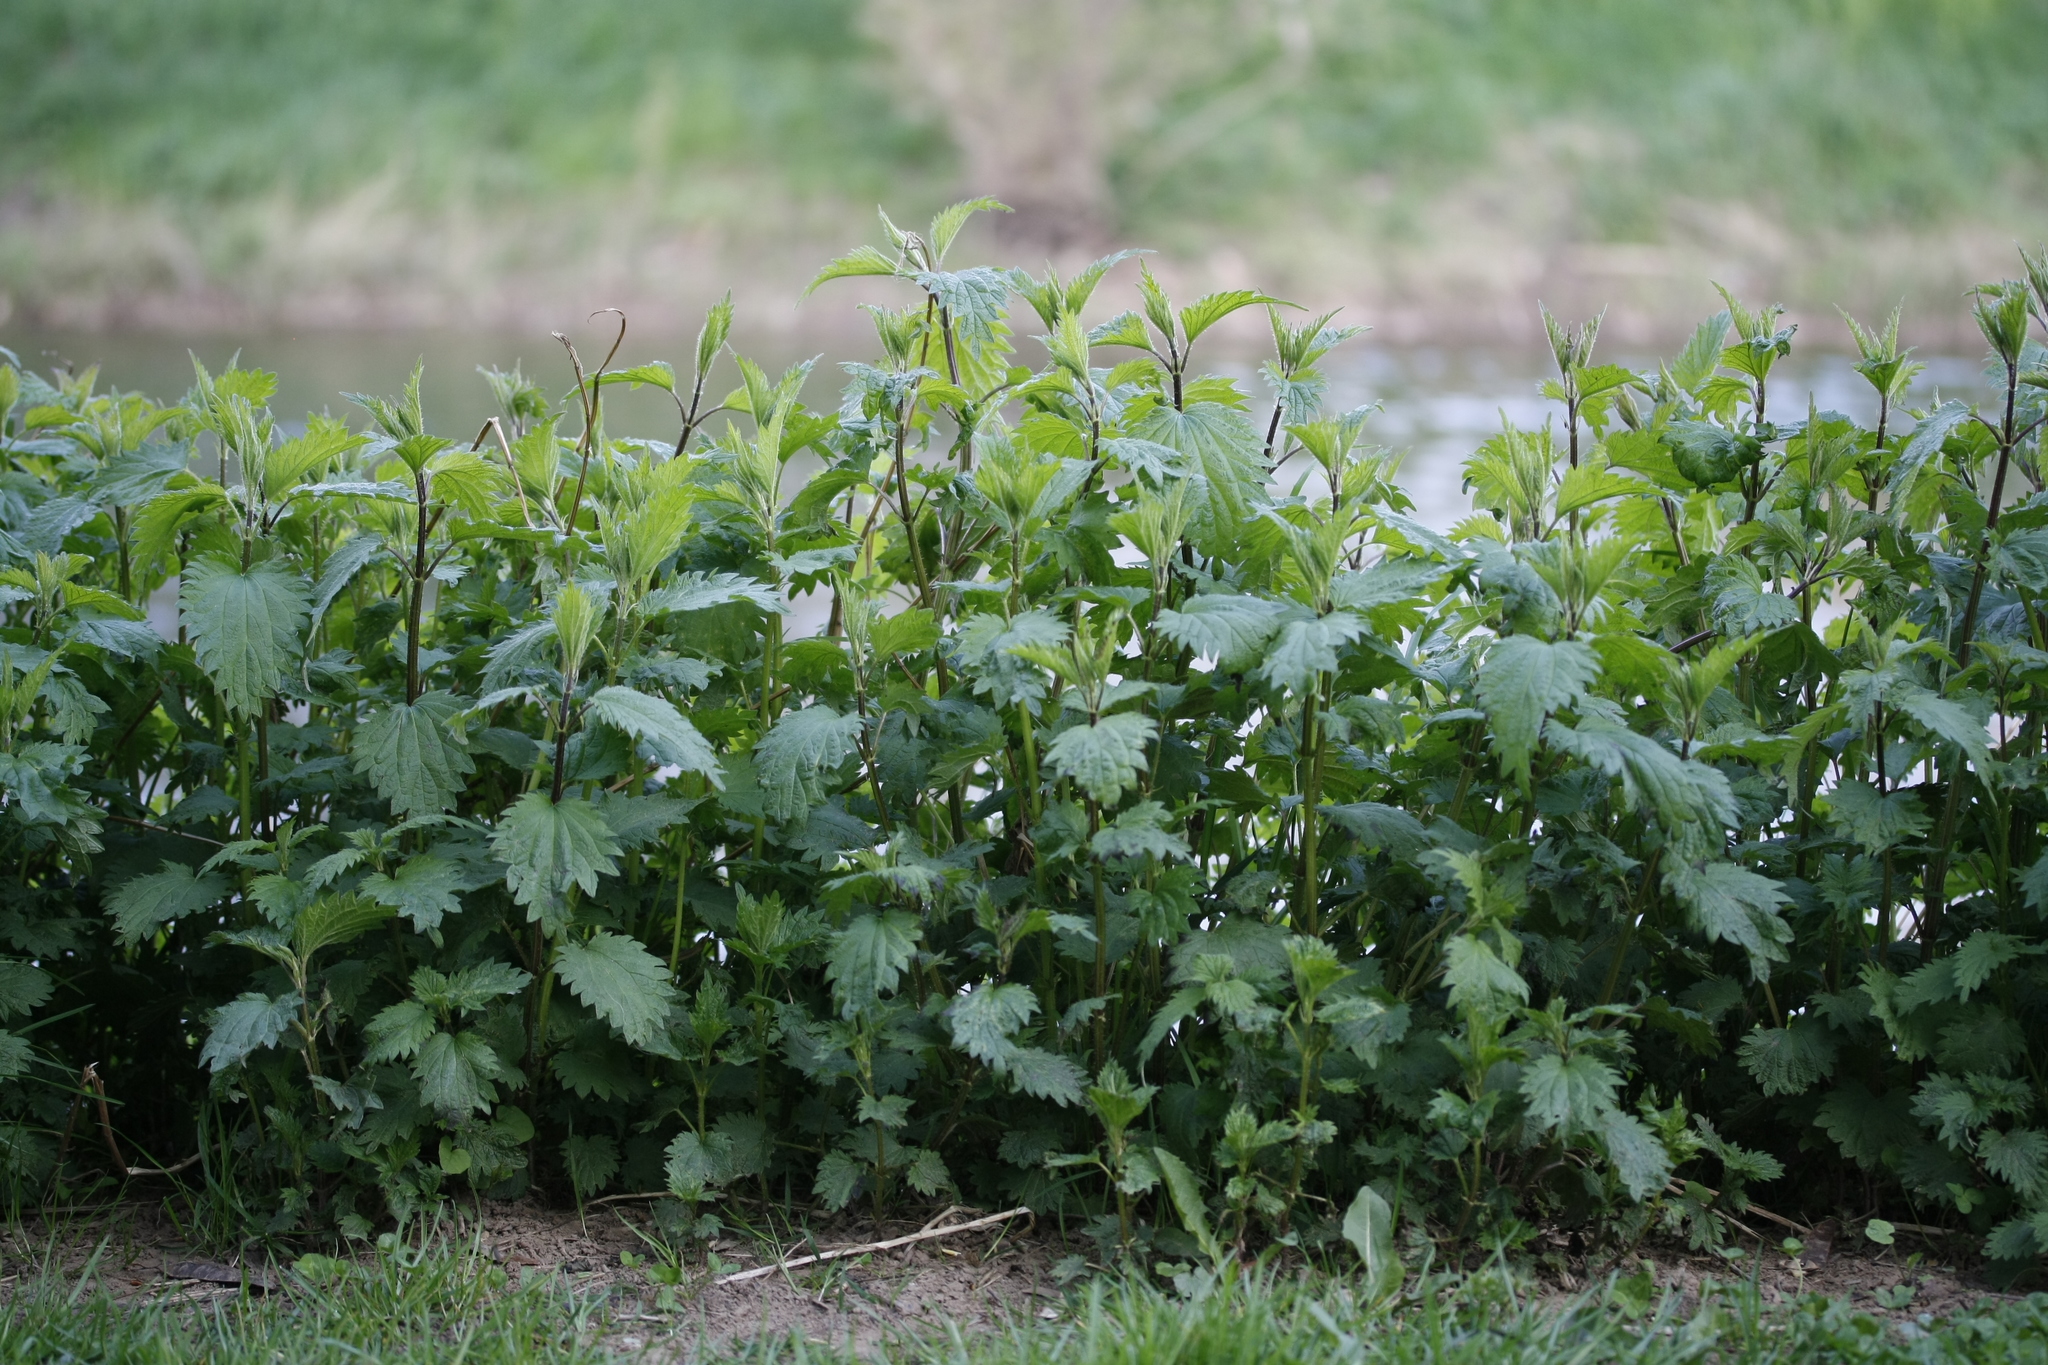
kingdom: Plantae
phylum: Tracheophyta
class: Magnoliopsida
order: Rosales
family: Urticaceae
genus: Urtica
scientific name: Urtica dioica
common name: Common nettle
